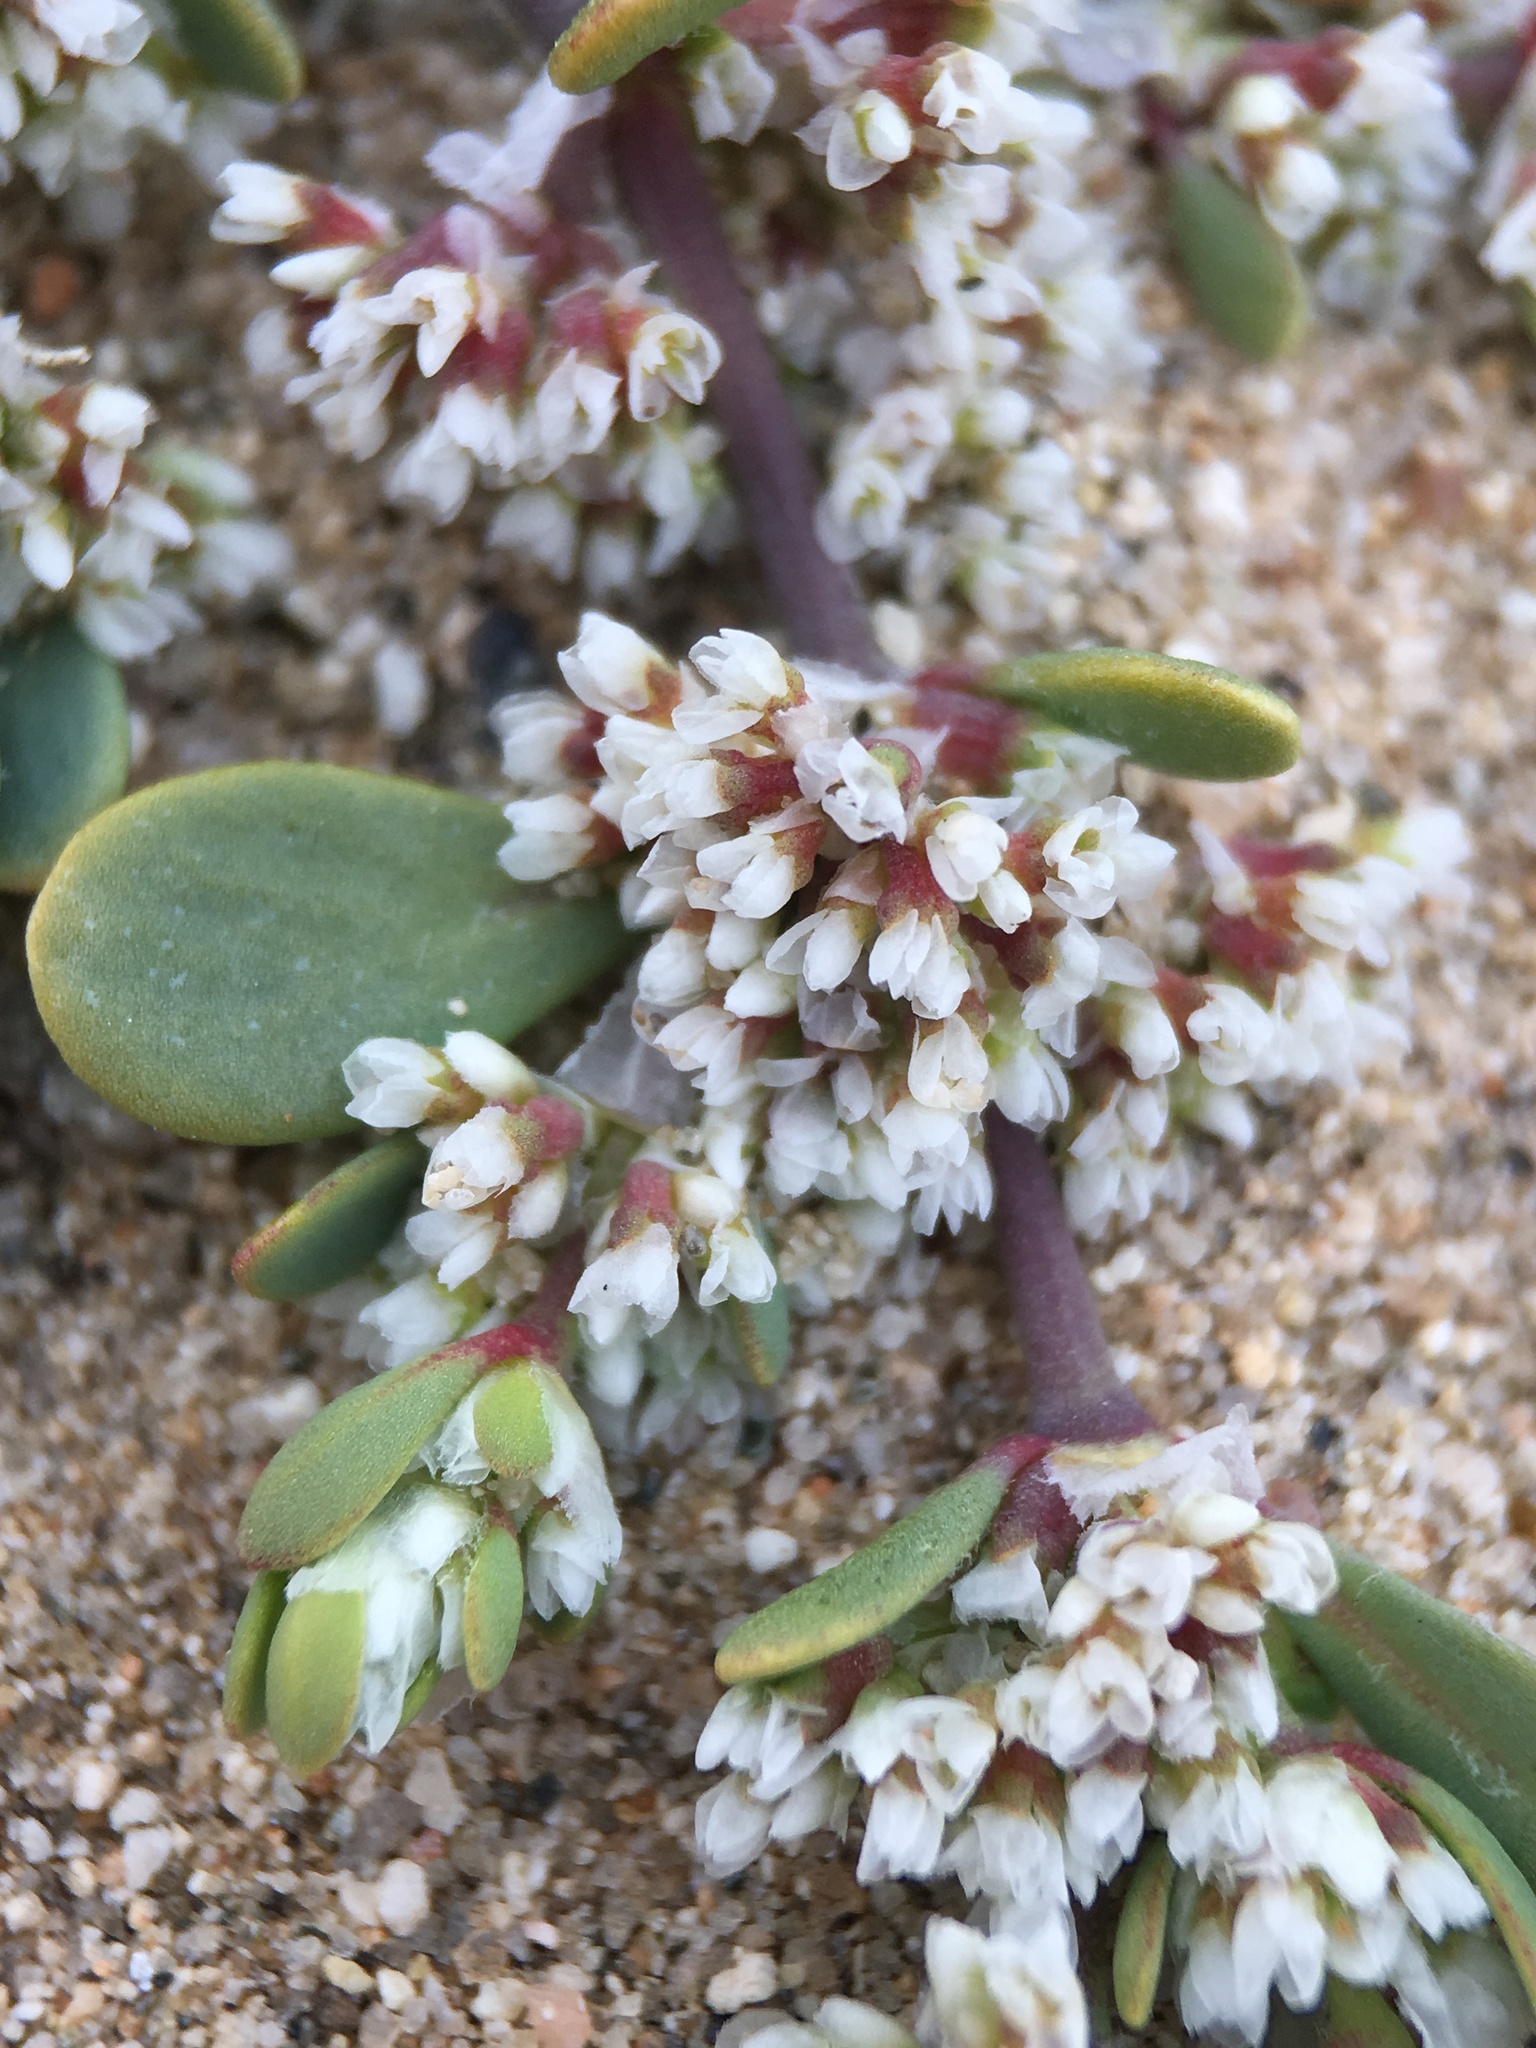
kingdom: Plantae
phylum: Tracheophyta
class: Magnoliopsida
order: Caryophyllales
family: Caryophyllaceae
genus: Achyronychia
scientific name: Achyronychia cooperi
